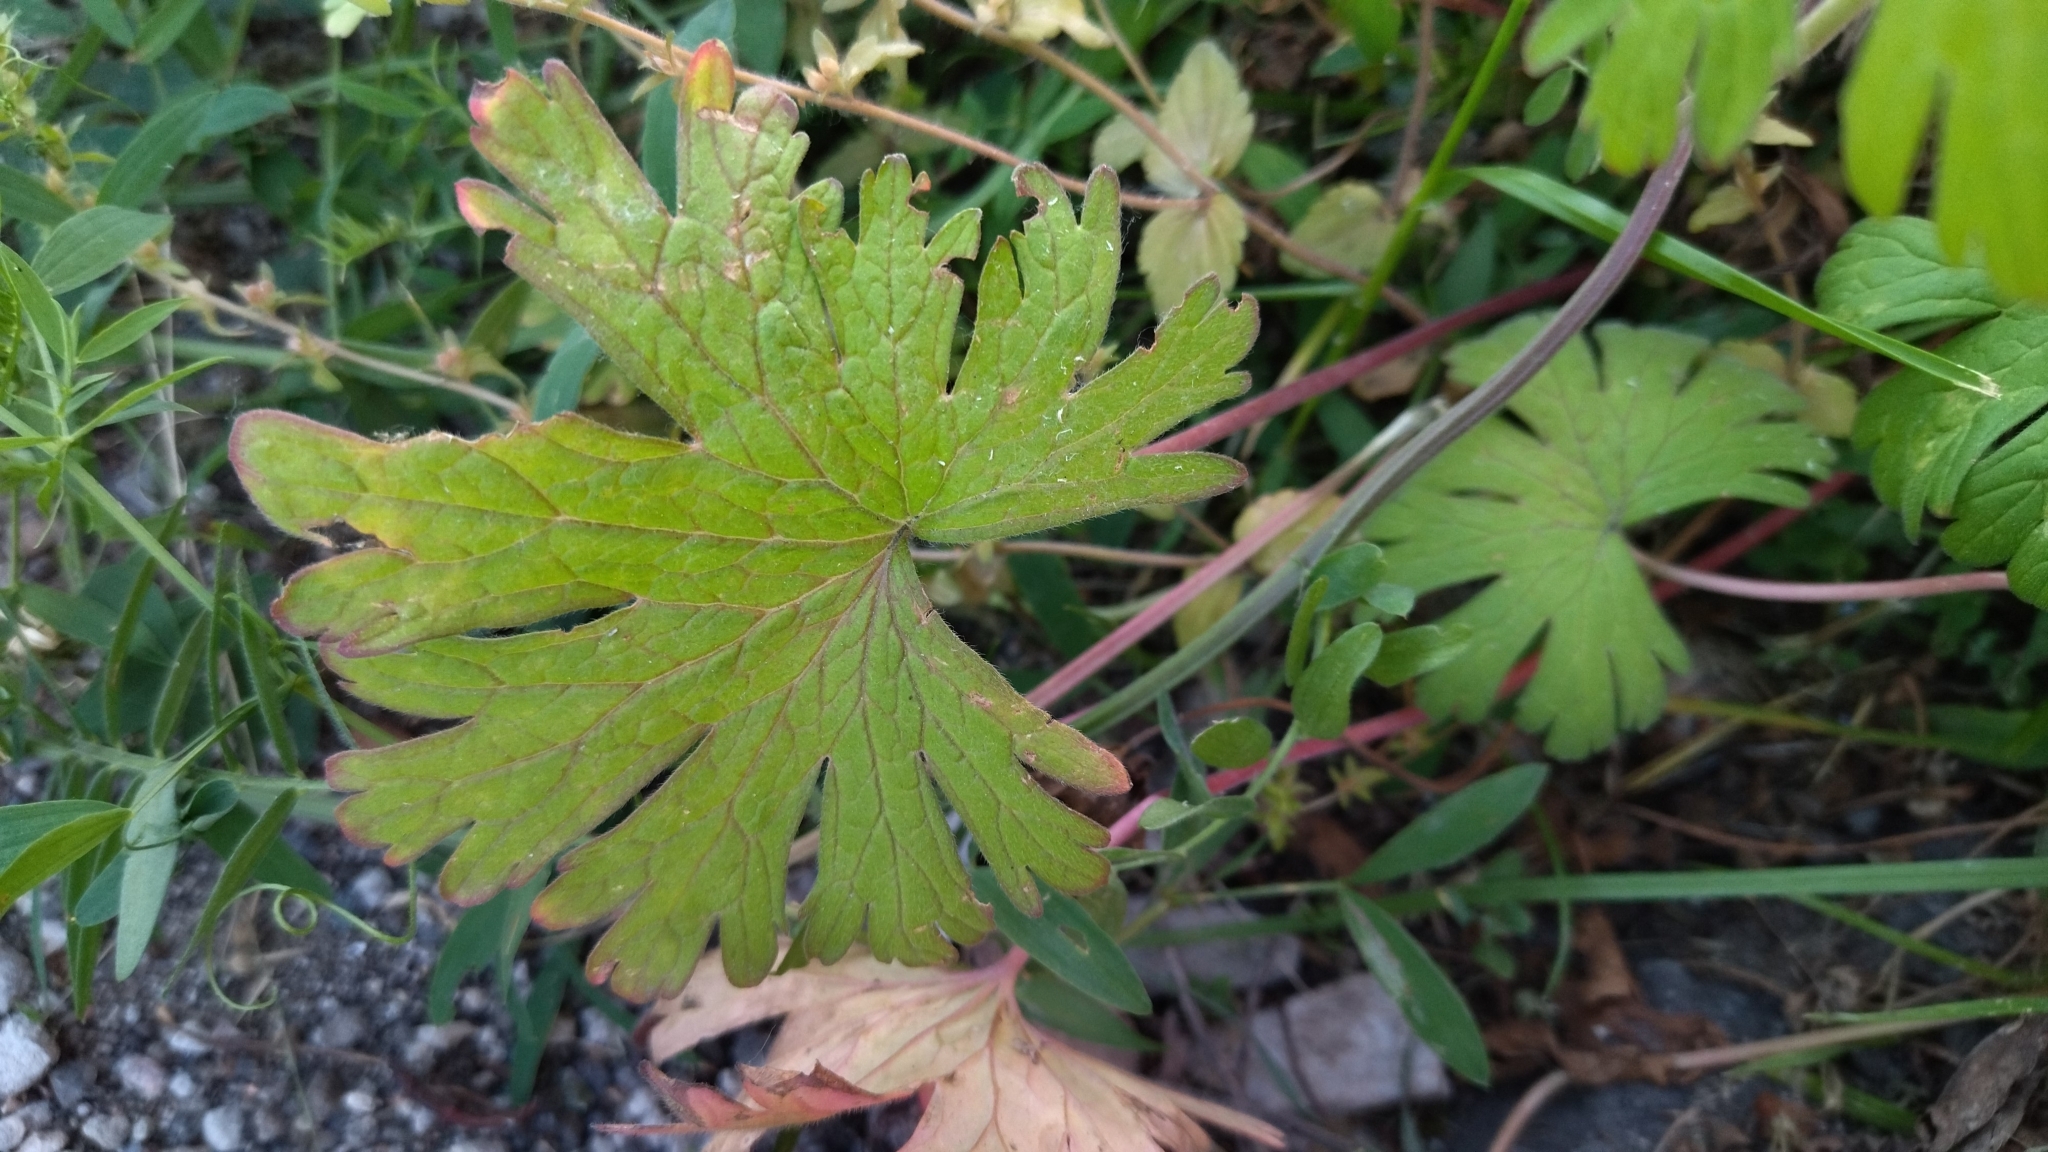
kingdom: Plantae
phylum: Tracheophyta
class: Magnoliopsida
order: Geraniales
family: Geraniaceae
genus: Geranium
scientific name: Geranium pusillum
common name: Small geranium
